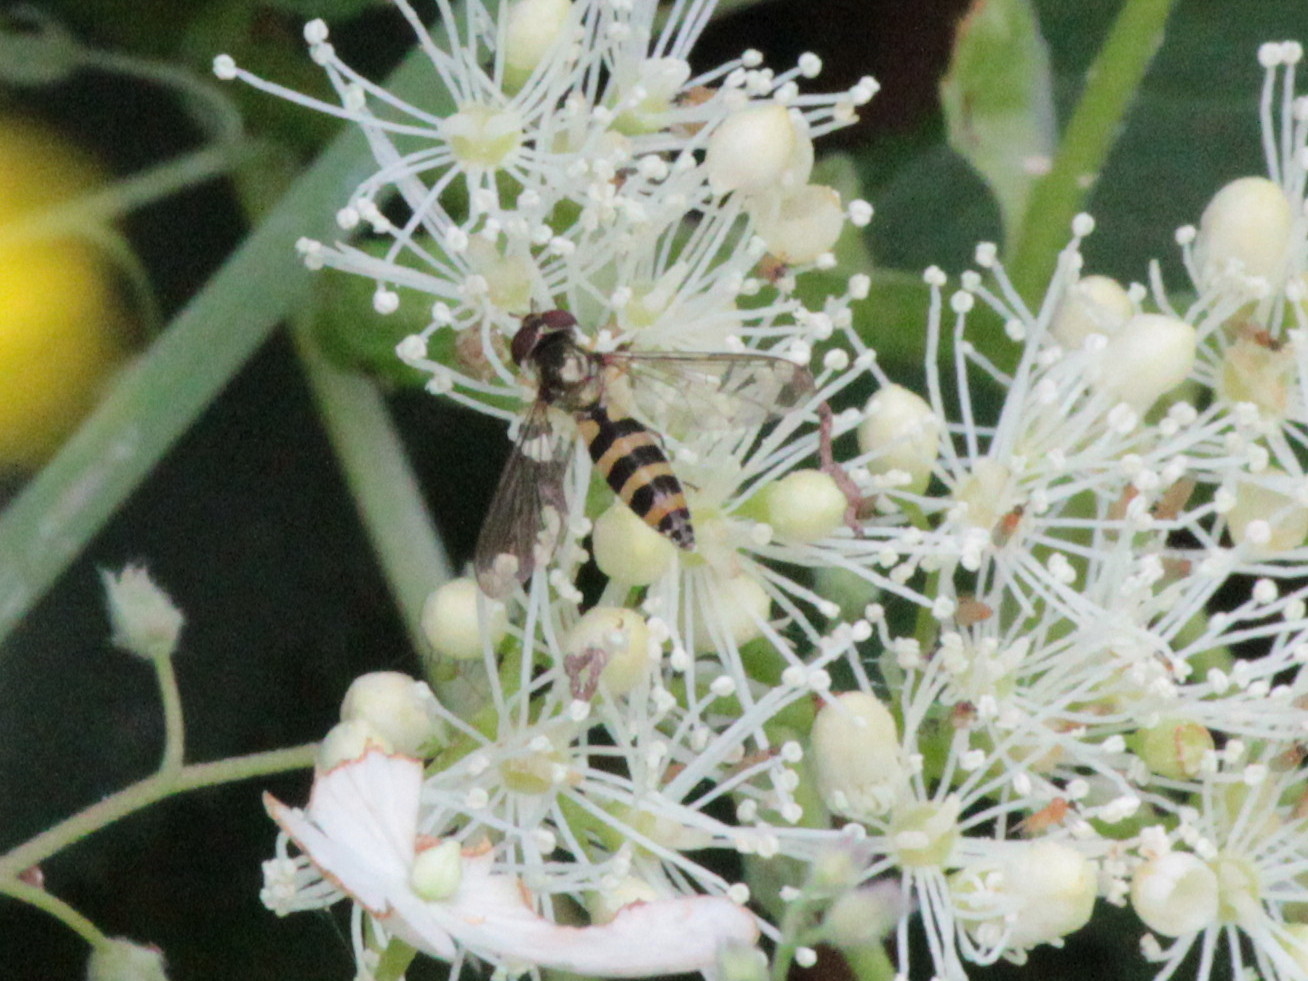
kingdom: Animalia
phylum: Arthropoda
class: Insecta
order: Diptera
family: Syrphidae
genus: Meliscaeva
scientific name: Meliscaeva cinctella
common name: American thintail fly
